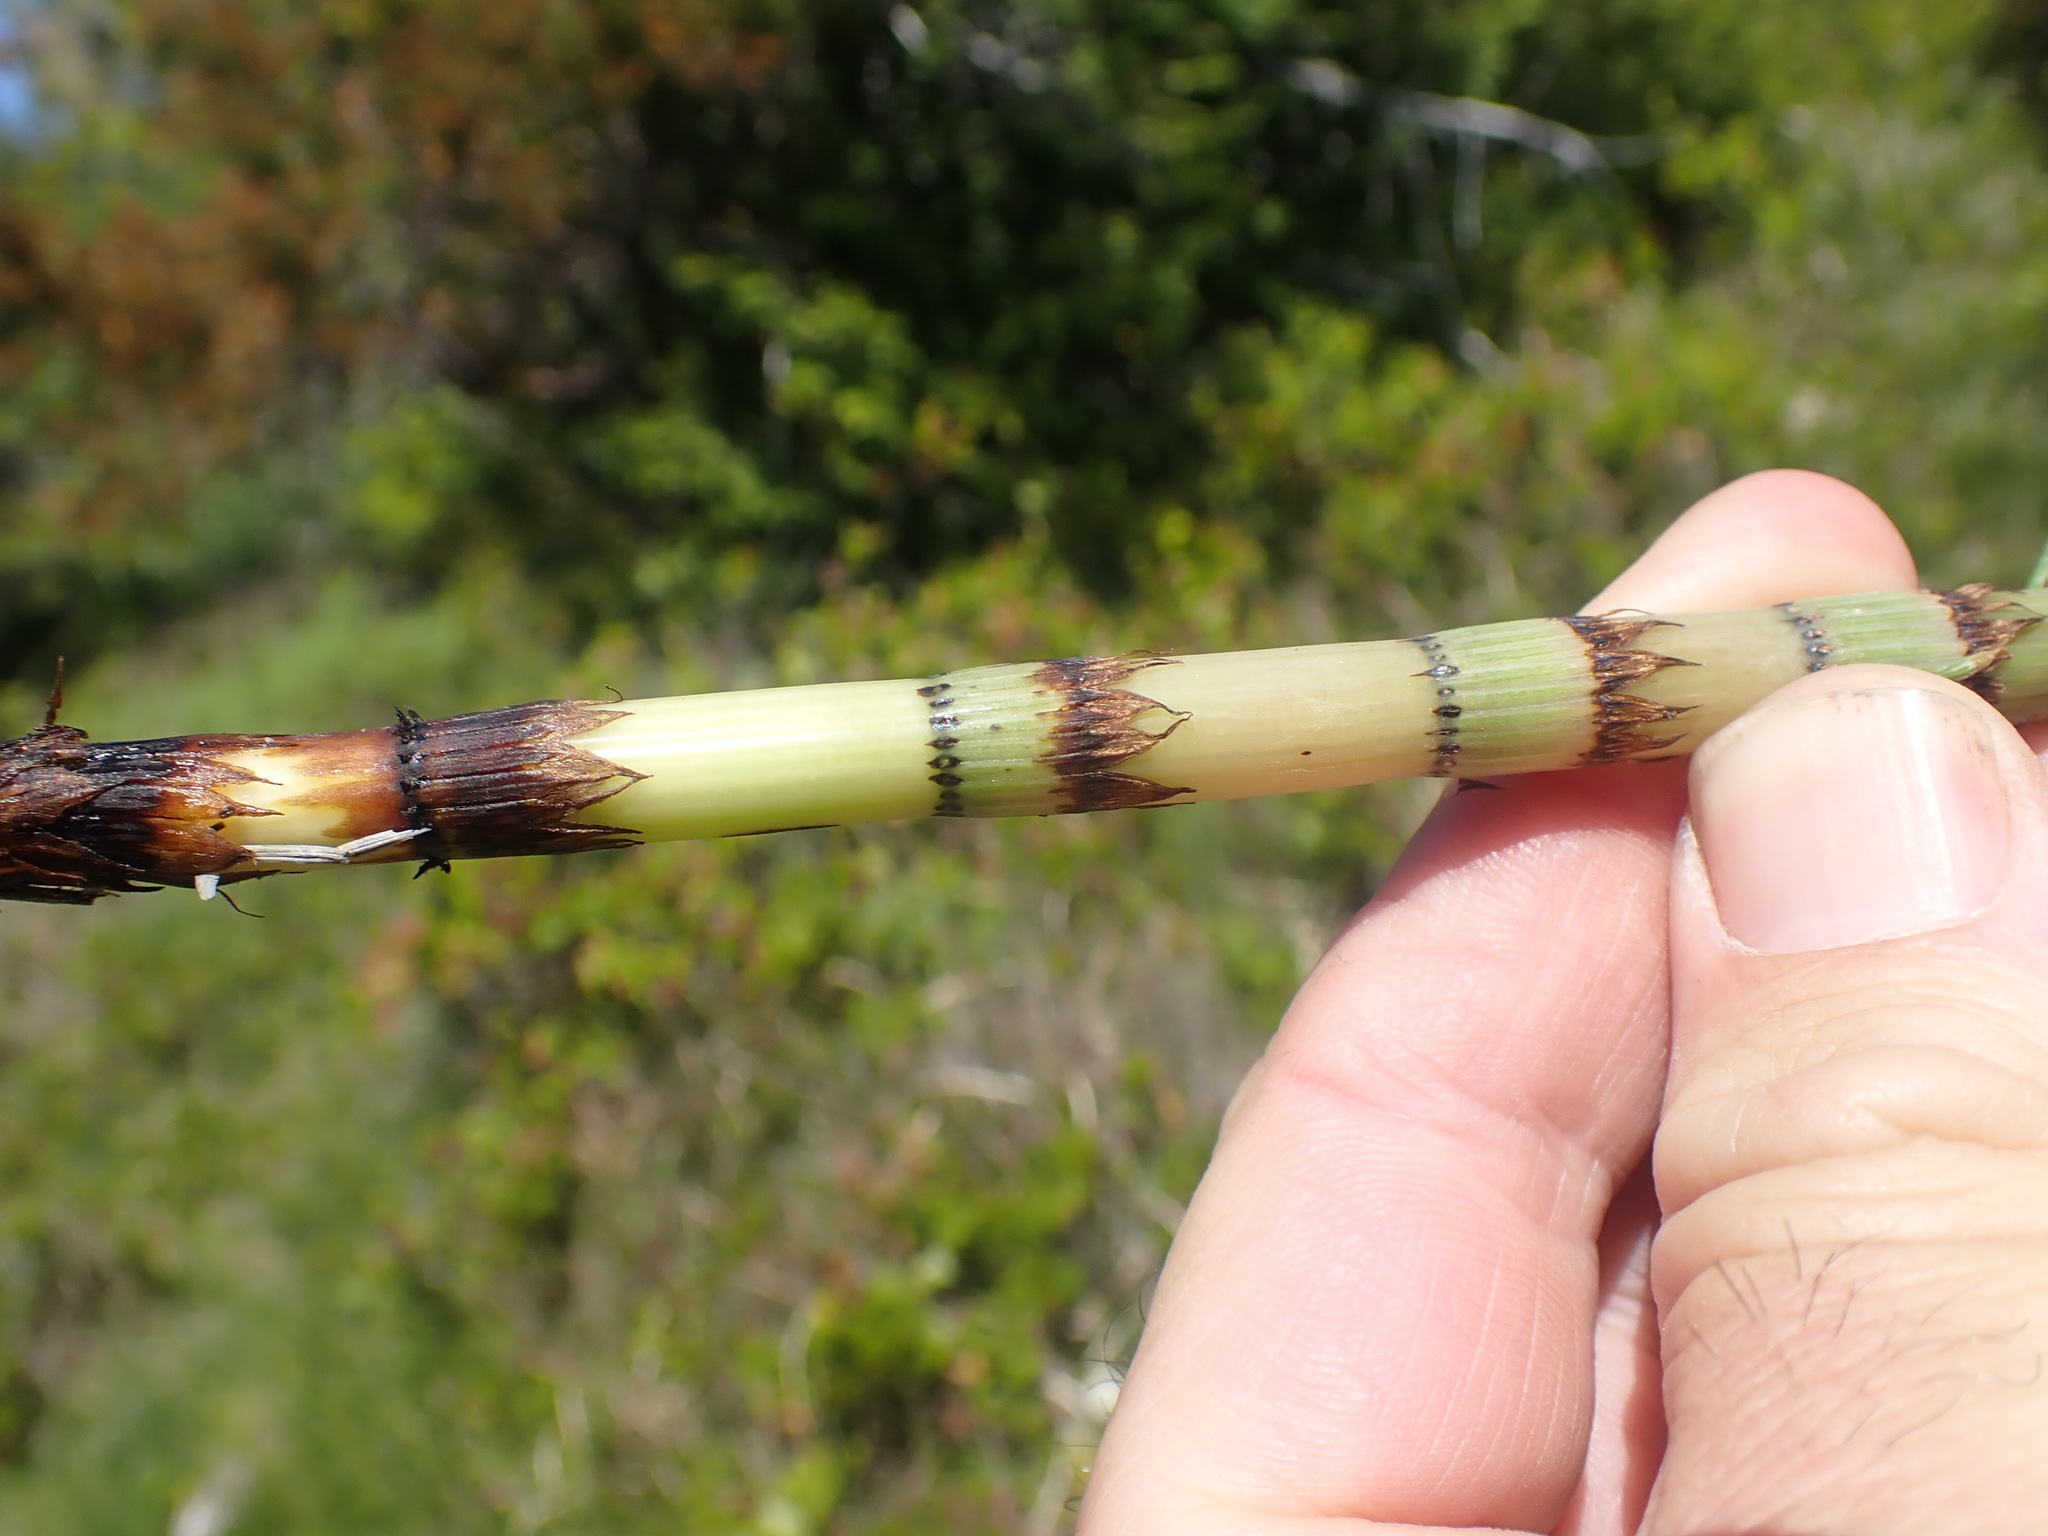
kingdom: Plantae
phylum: Tracheophyta
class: Polypodiopsida
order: Equisetales
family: Equisetaceae
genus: Equisetum
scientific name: Equisetum braunii
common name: Braun's horsetail
